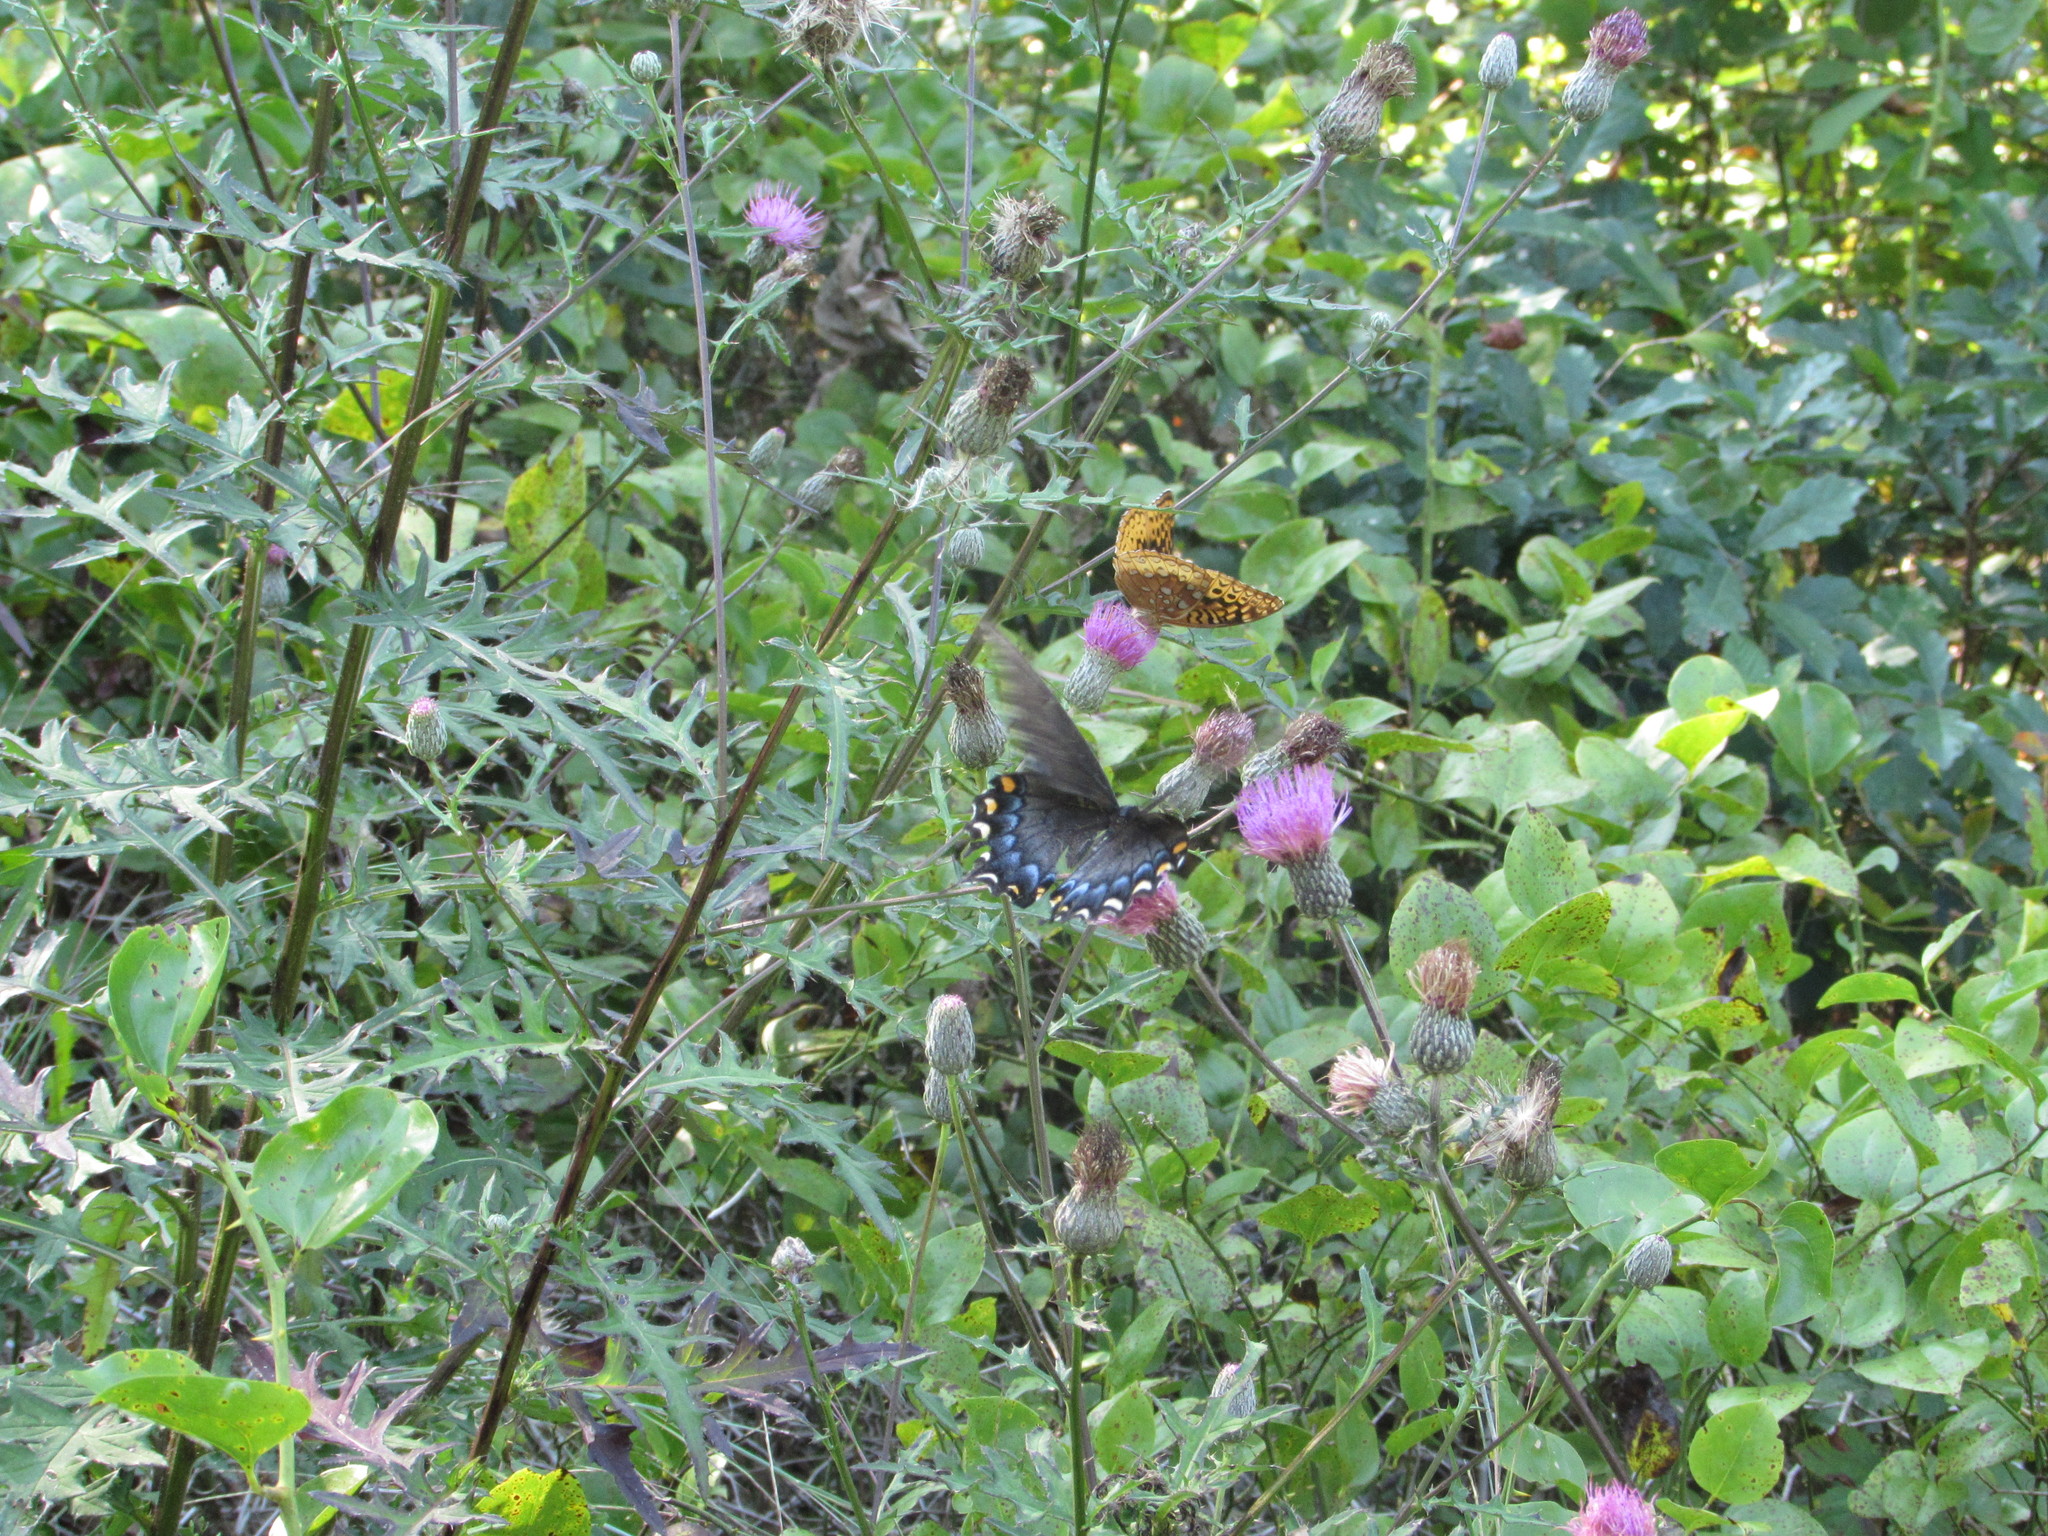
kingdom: Animalia
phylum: Arthropoda
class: Insecta
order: Lepidoptera
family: Nymphalidae
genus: Speyeria
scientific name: Speyeria cybele
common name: Great spangled fritillary
